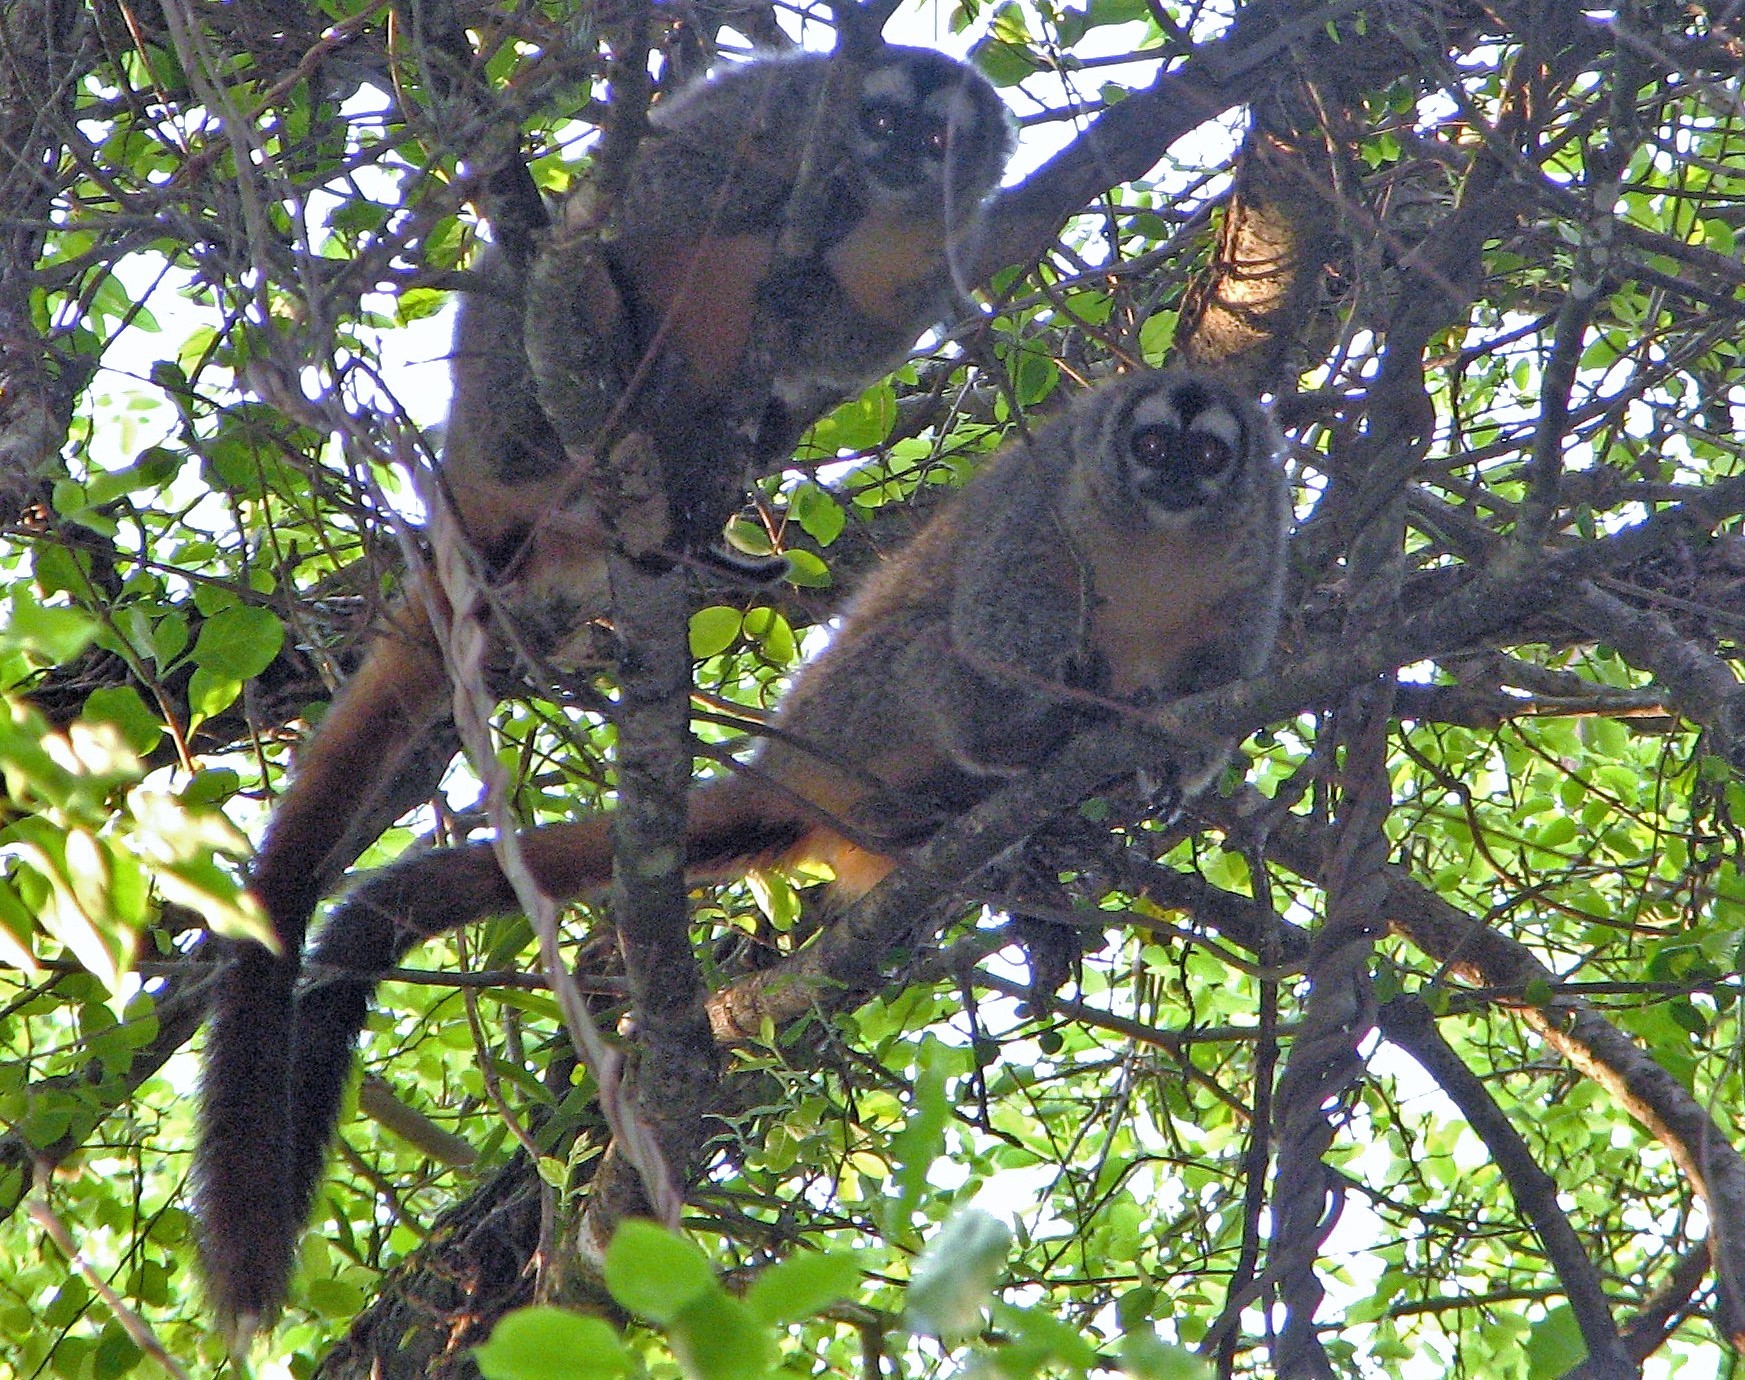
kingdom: Animalia
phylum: Chordata
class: Mammalia
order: Primates
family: Aotidae
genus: Aotus
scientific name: Aotus azarae
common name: Azara's night monkey
